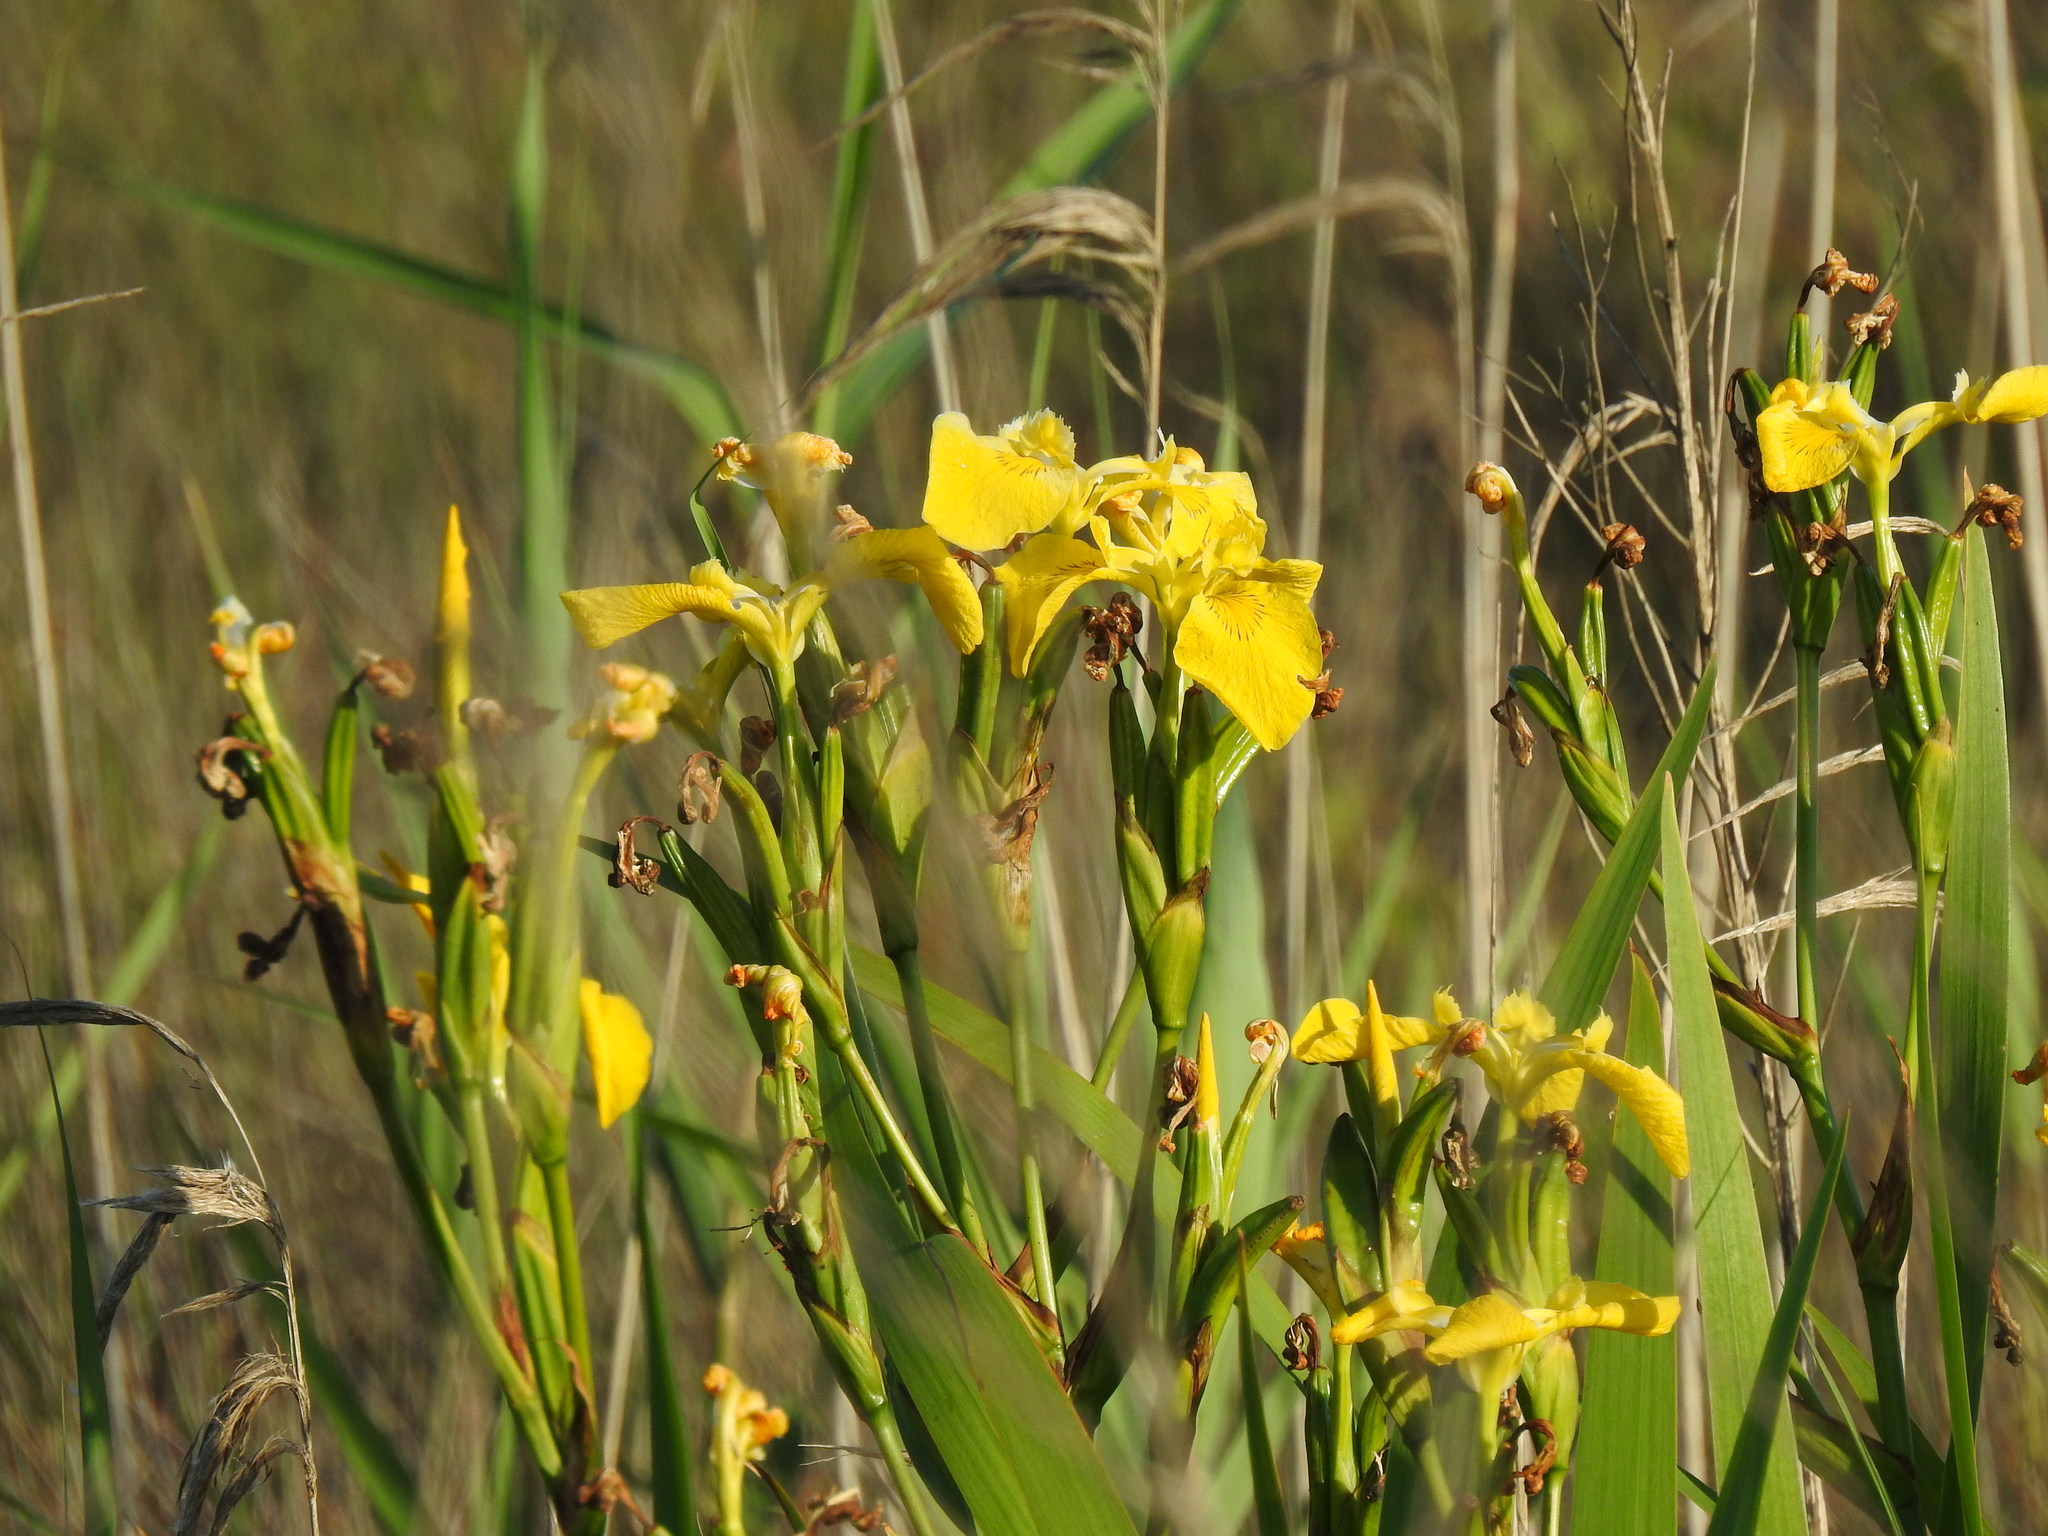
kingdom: Plantae
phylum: Tracheophyta
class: Liliopsida
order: Asparagales
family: Iridaceae
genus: Iris
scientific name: Iris pseudacorus
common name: Yellow flag
